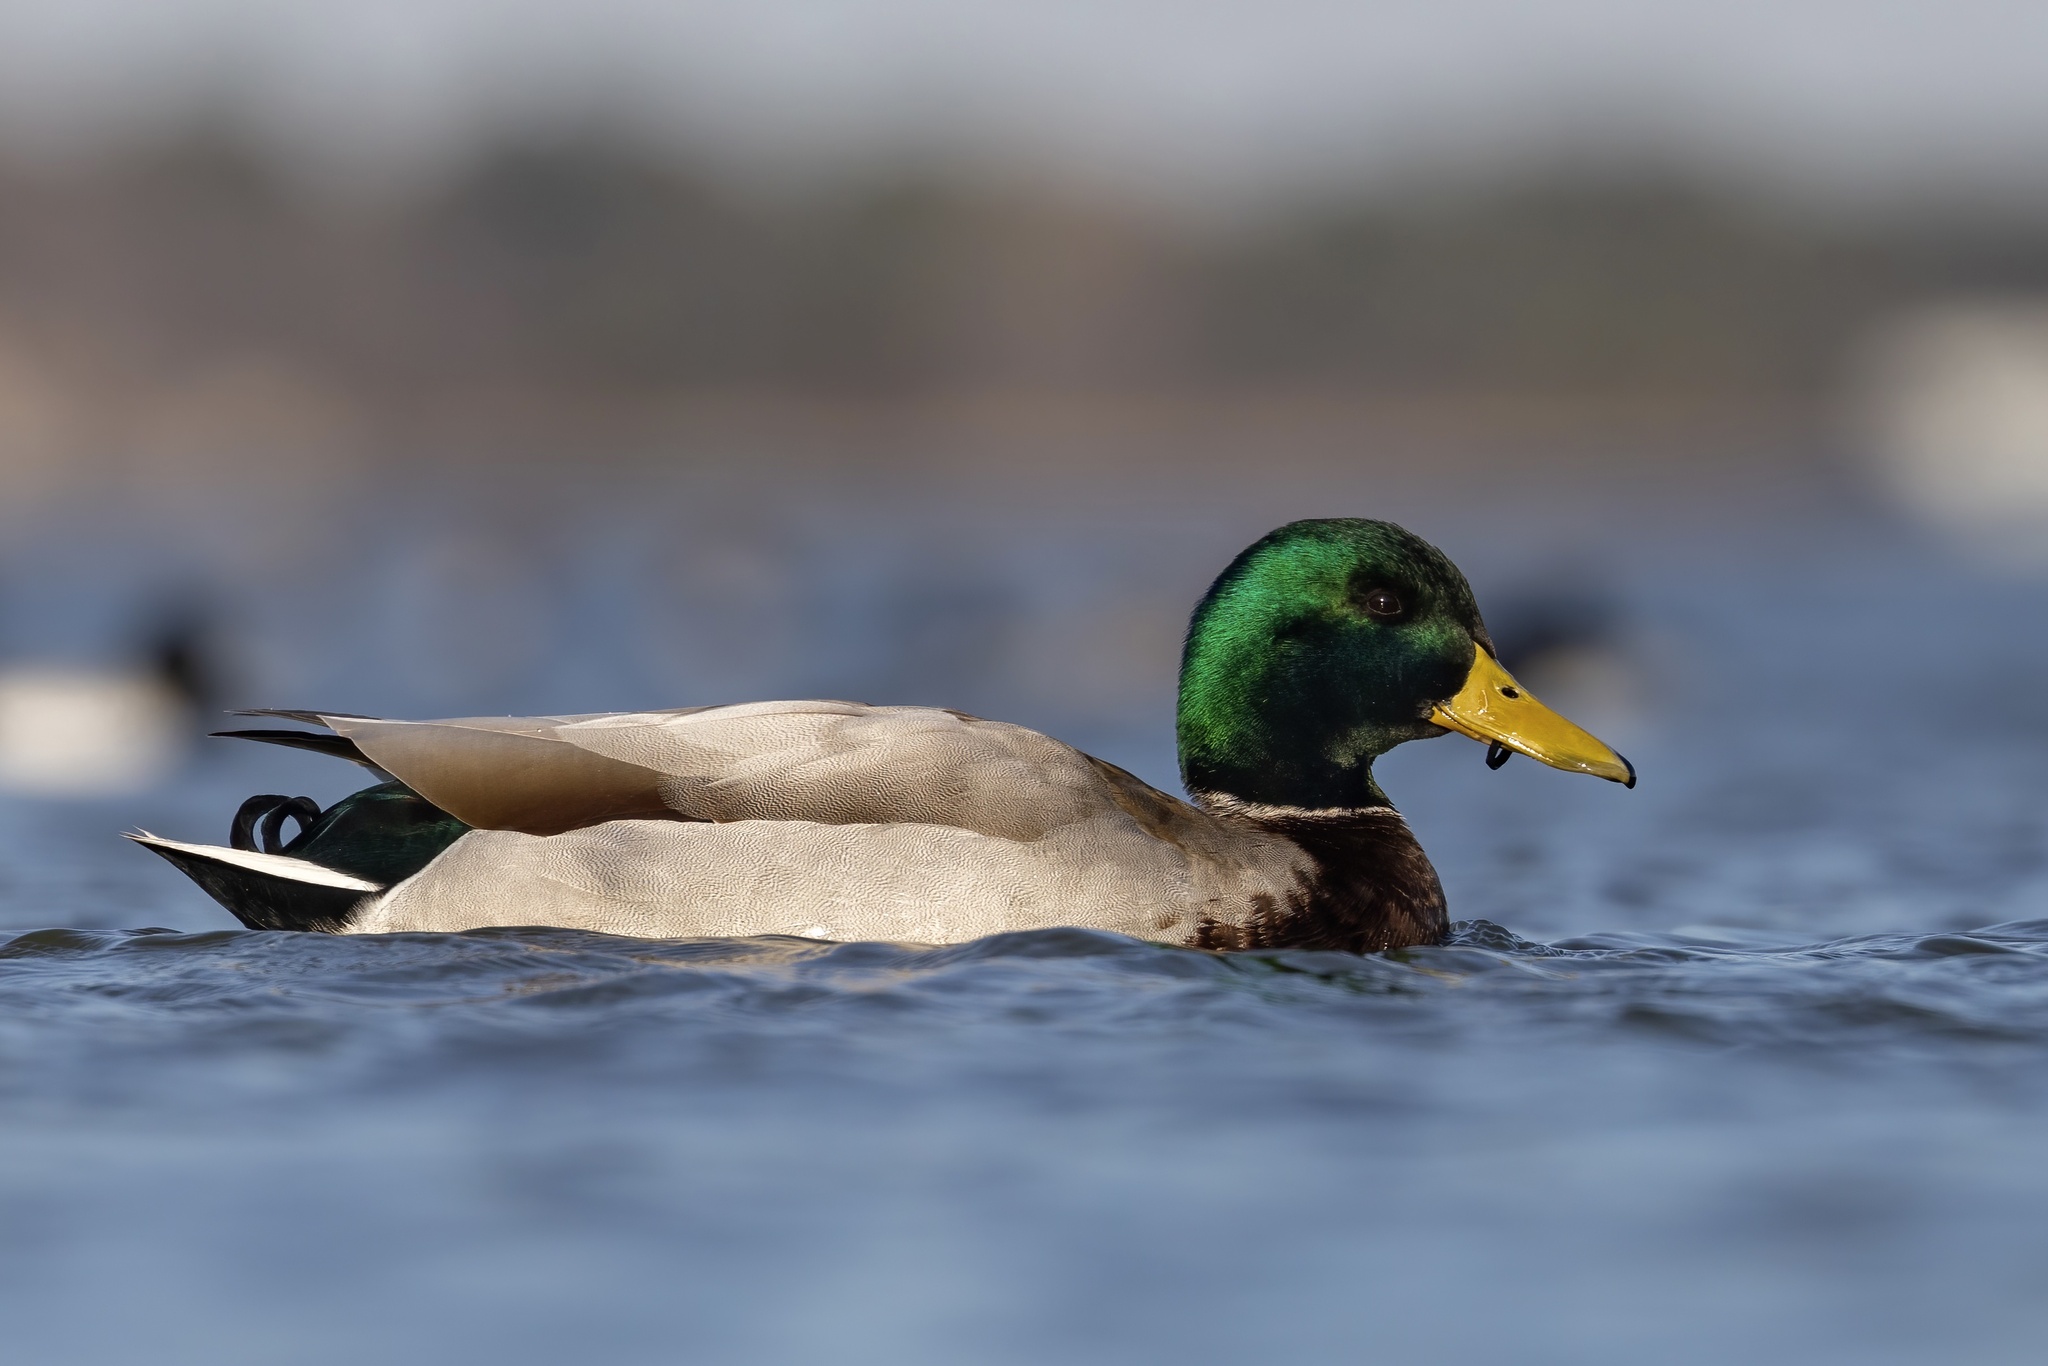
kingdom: Animalia
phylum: Chordata
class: Aves
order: Anseriformes
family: Anatidae
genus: Anas
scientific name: Anas platyrhynchos
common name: Mallard
